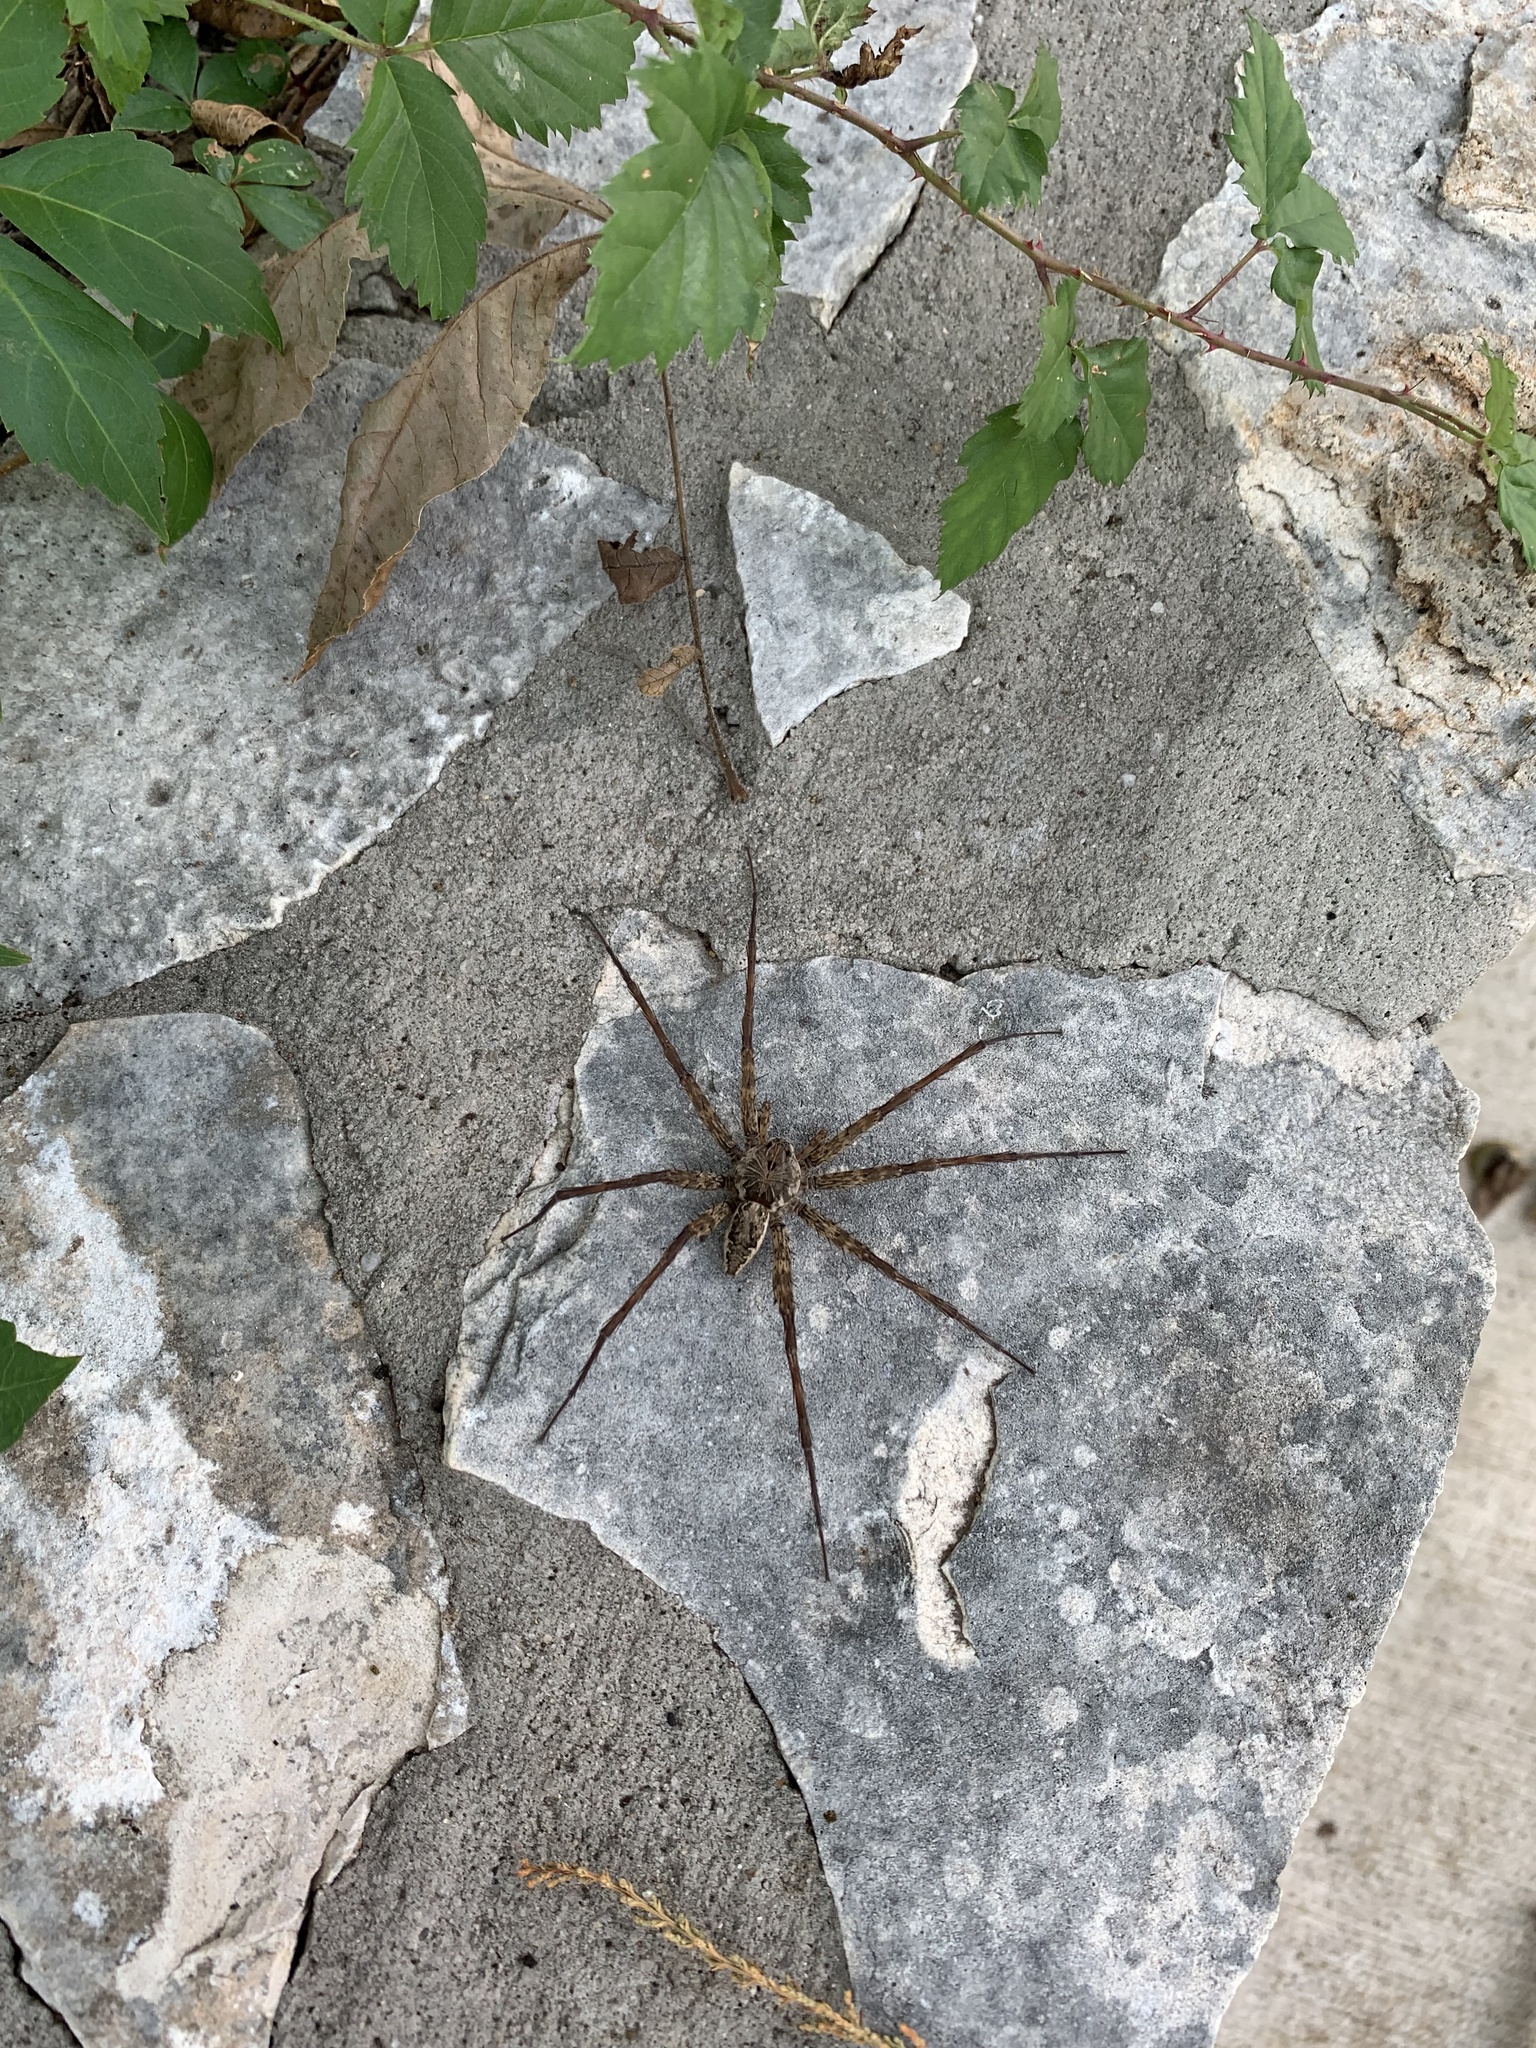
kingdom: Animalia
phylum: Arthropoda
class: Arachnida
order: Araneae
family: Pisauridae
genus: Dolomedes
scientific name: Dolomedes vittatus
